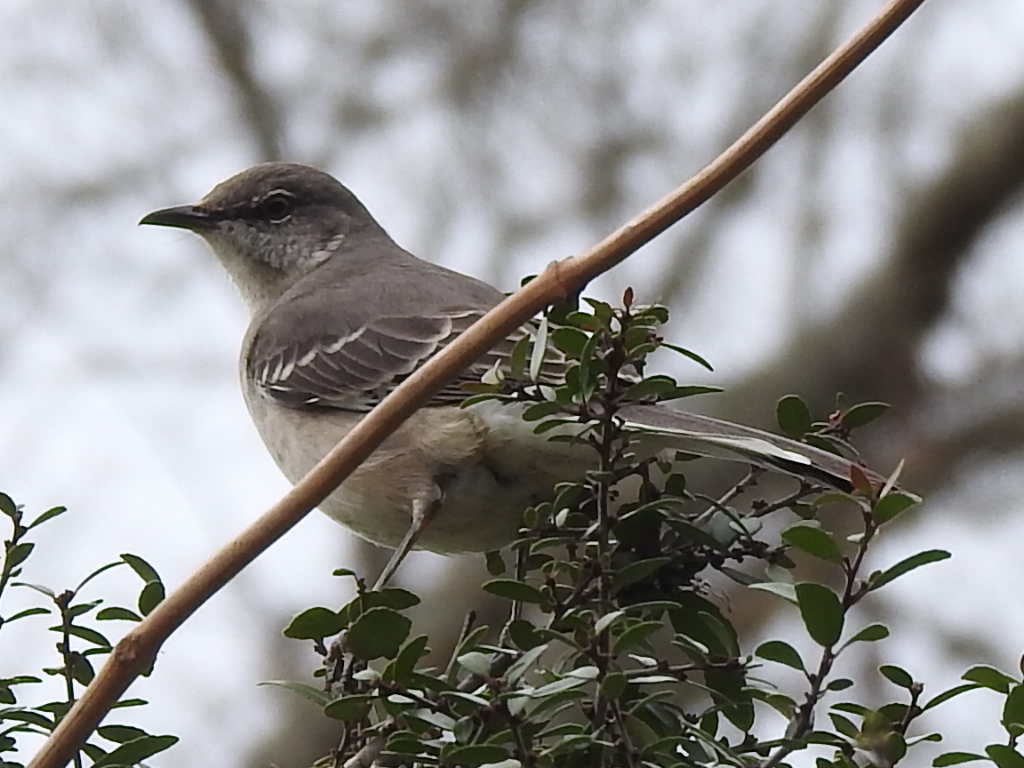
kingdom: Animalia
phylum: Chordata
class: Aves
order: Passeriformes
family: Mimidae
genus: Mimus
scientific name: Mimus polyglottos
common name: Northern mockingbird
